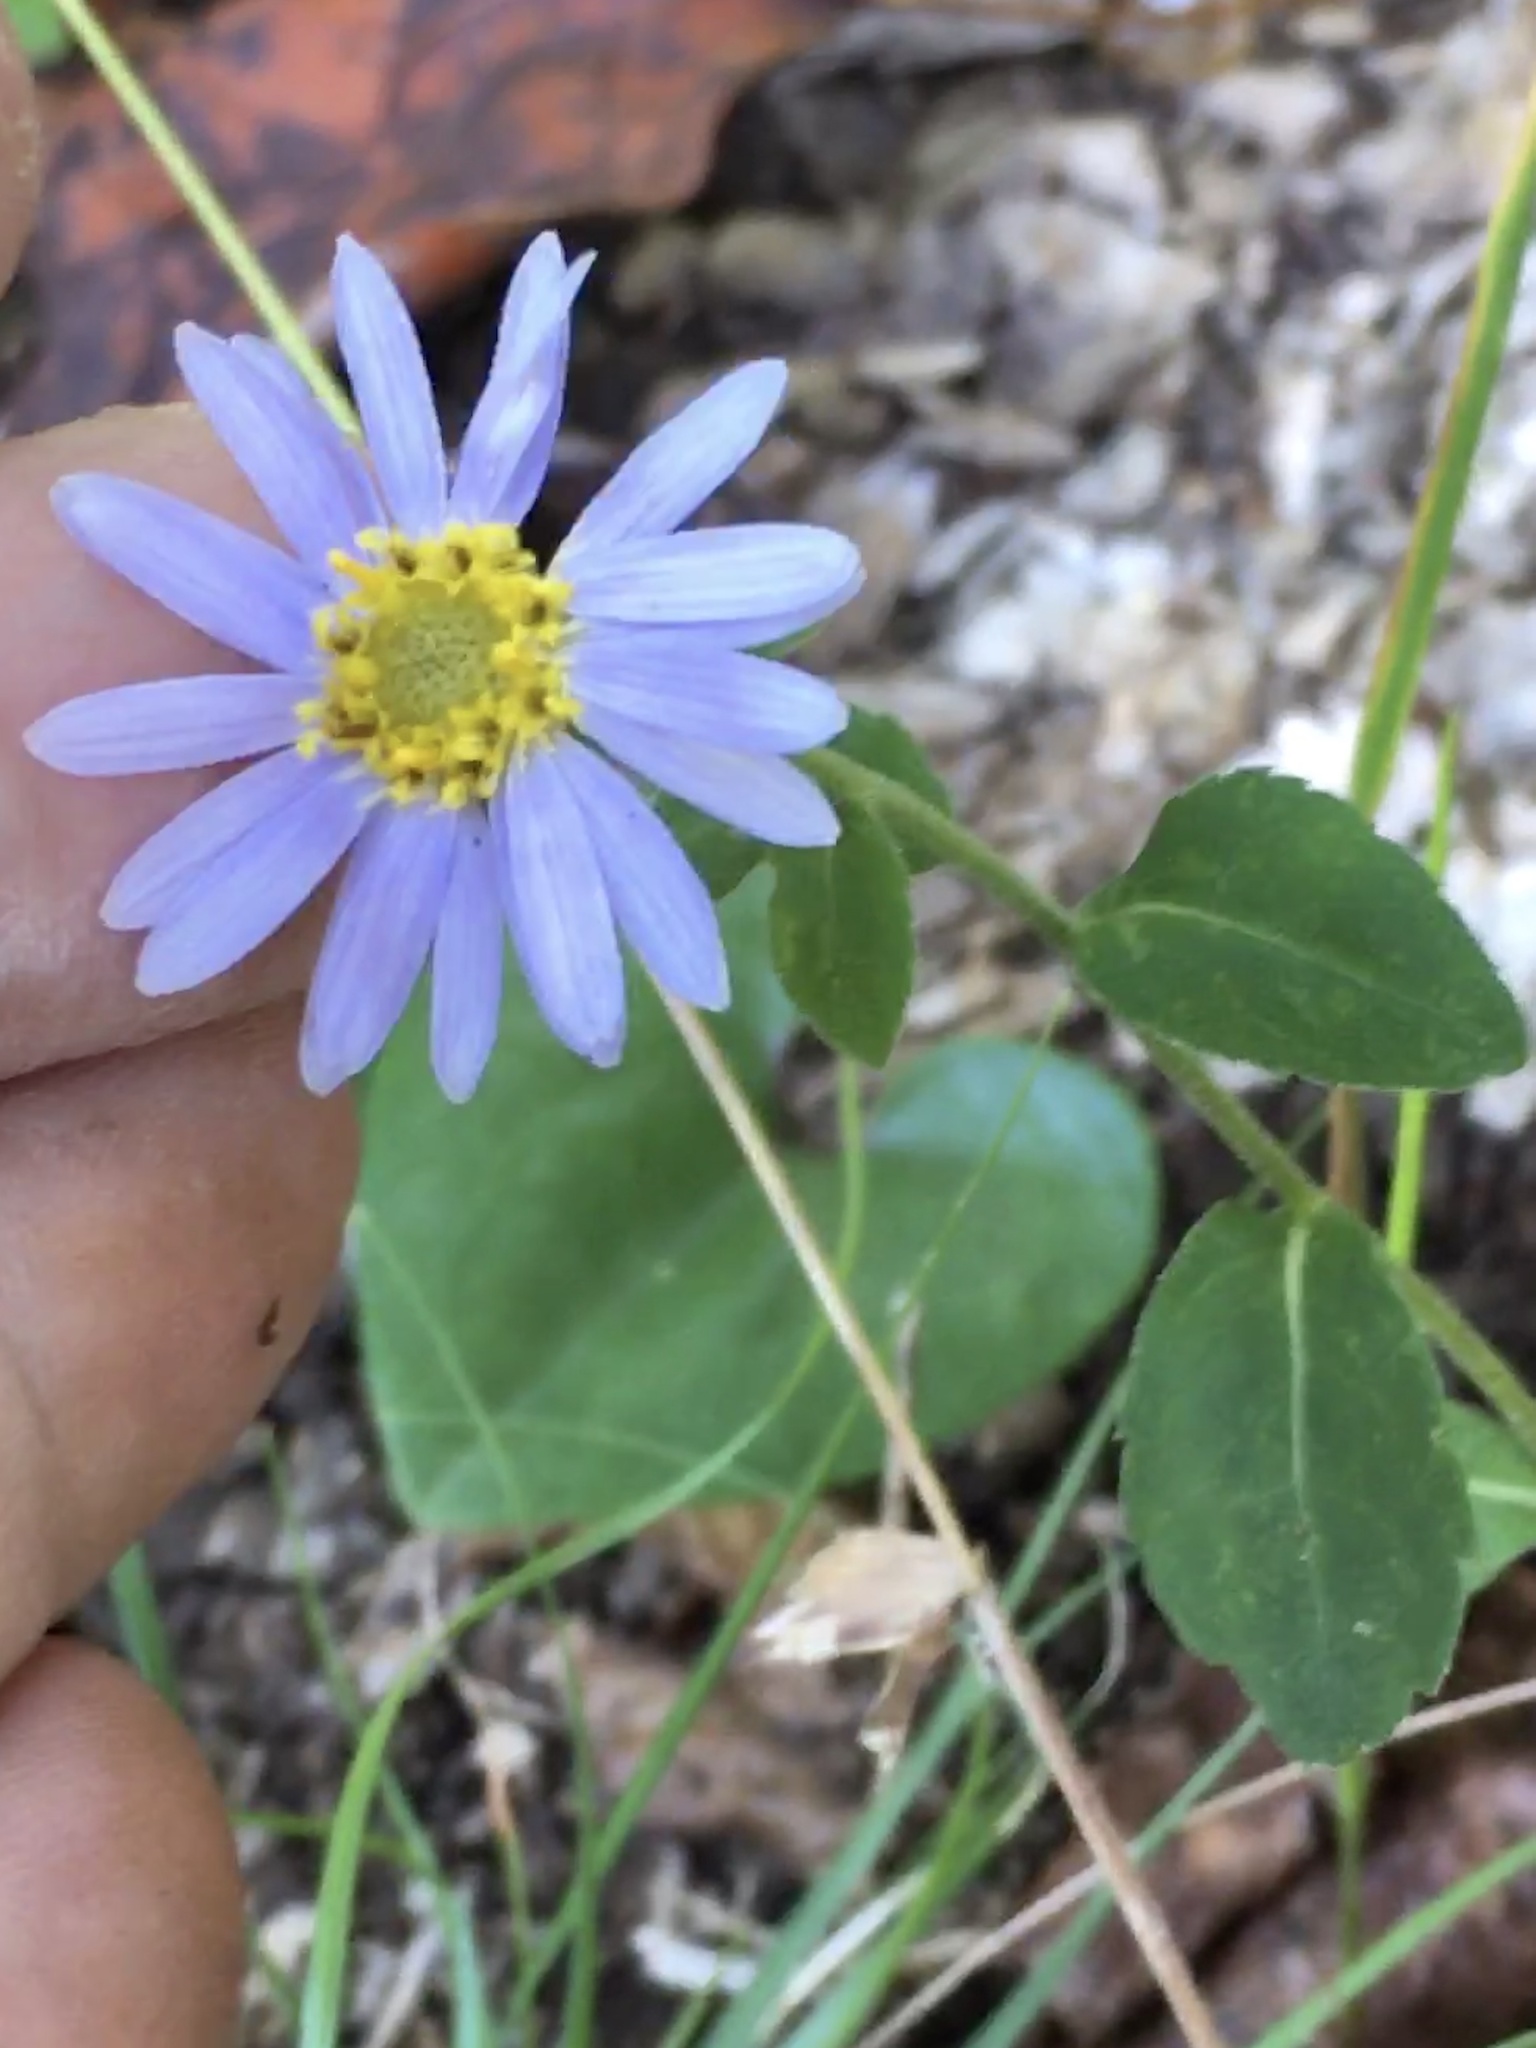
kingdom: Plantae
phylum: Tracheophyta
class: Magnoliopsida
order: Asterales
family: Asteraceae
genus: Eurybia
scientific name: Eurybia mirabilis
